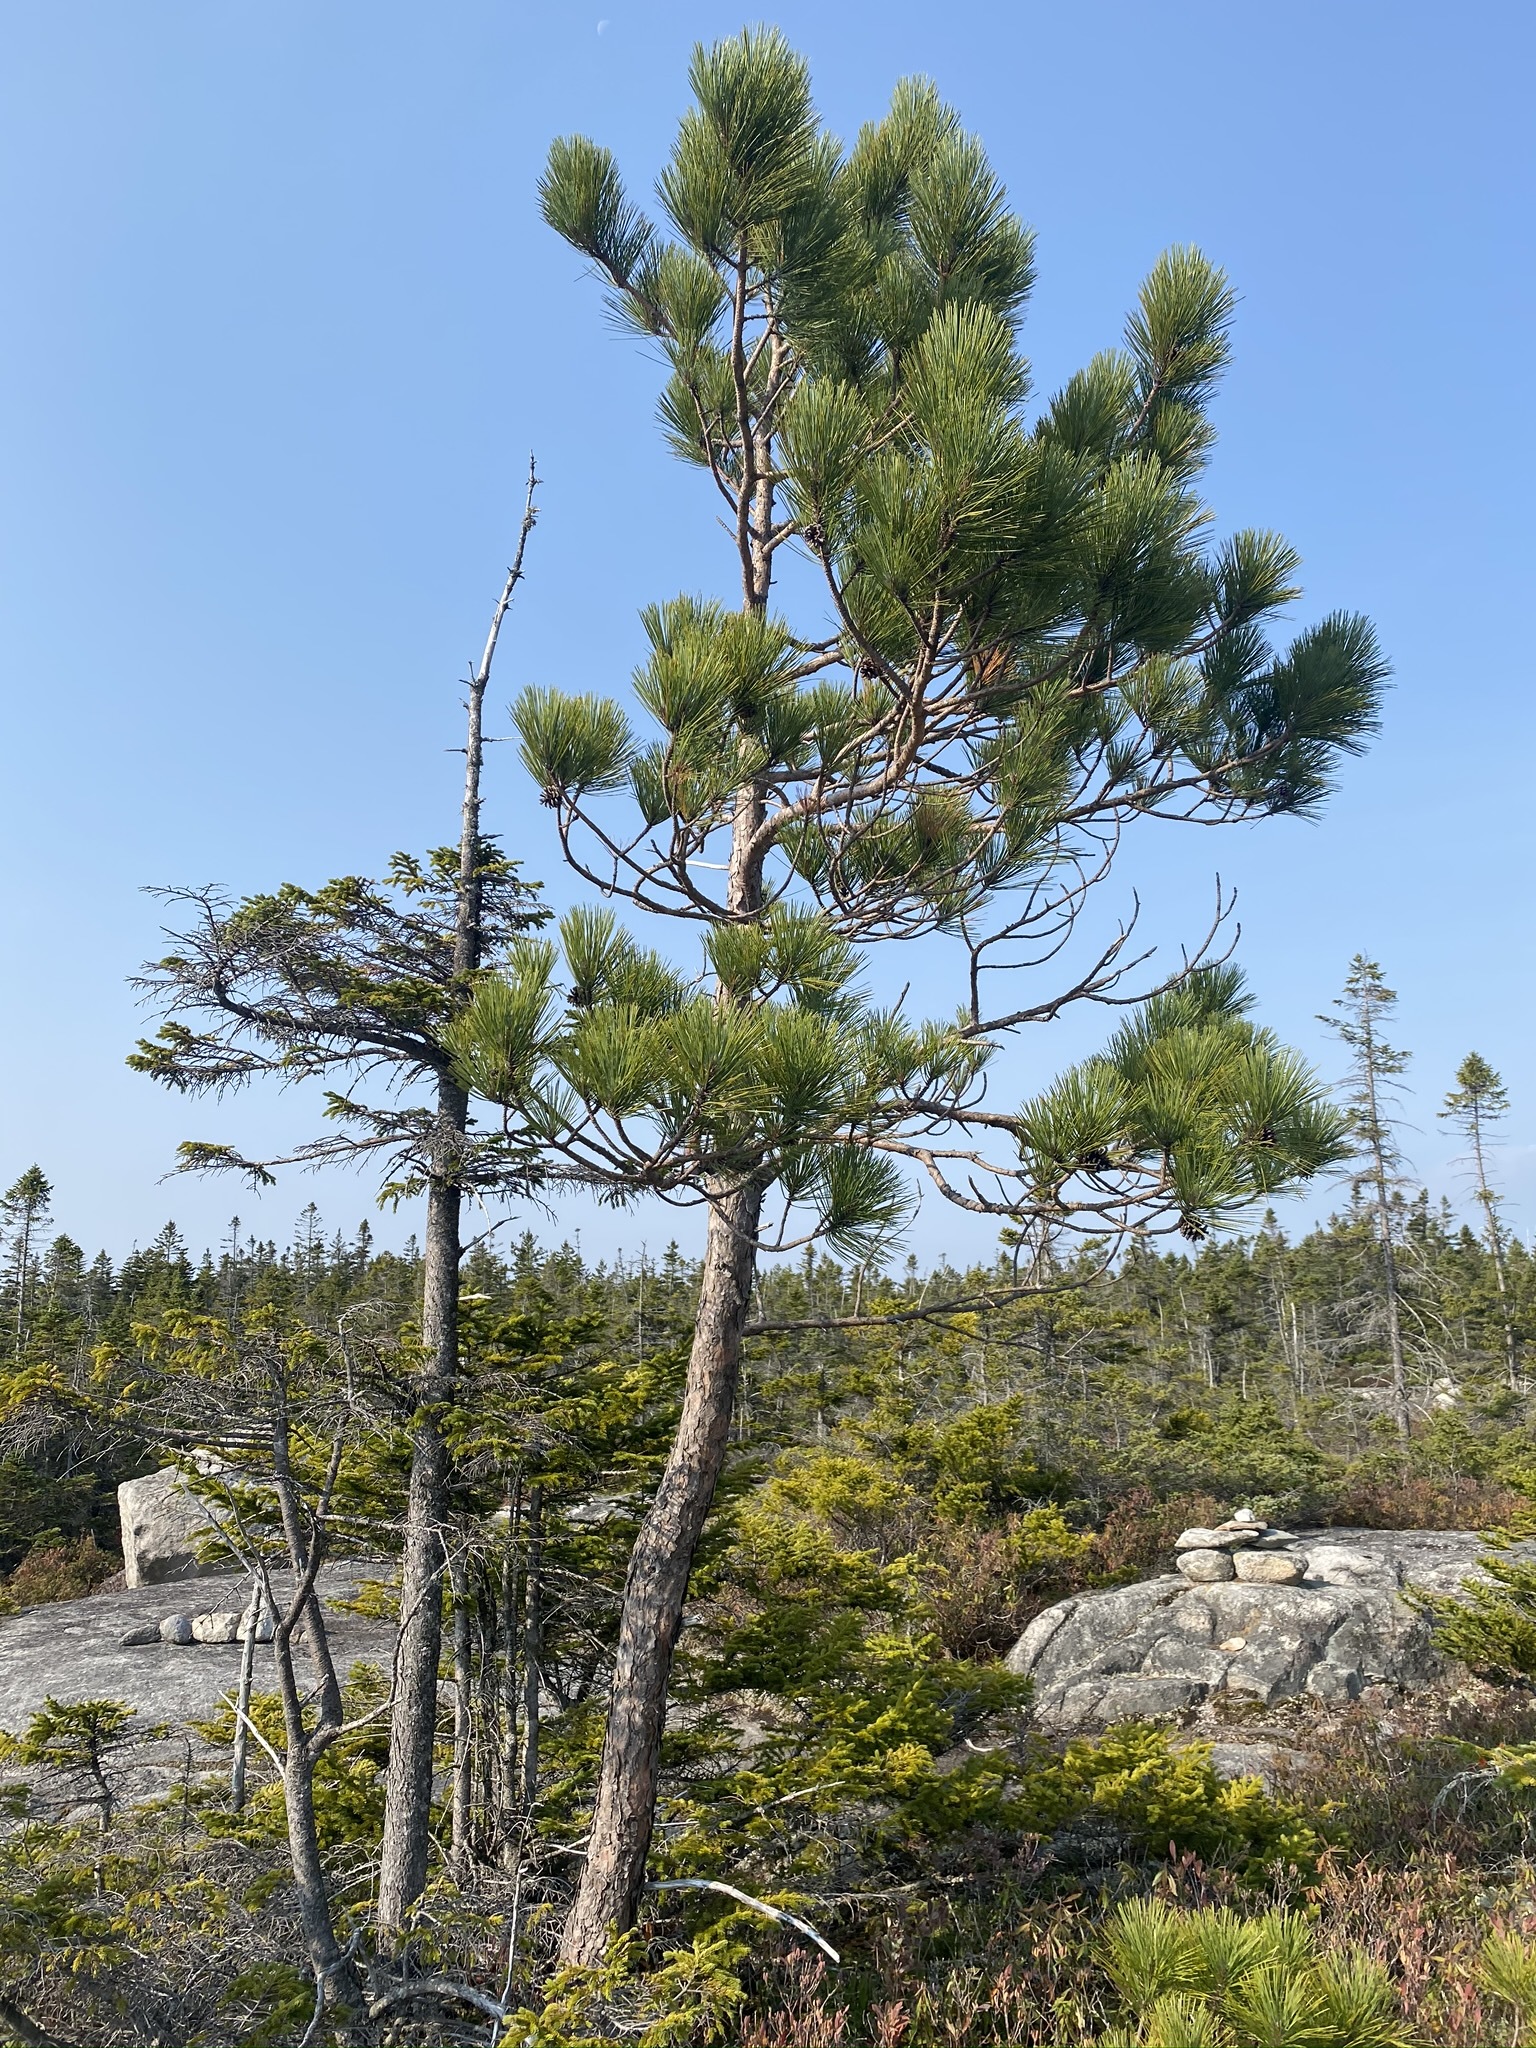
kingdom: Plantae
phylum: Tracheophyta
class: Pinopsida
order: Pinales
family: Pinaceae
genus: Pinus
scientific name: Pinus resinosa
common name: Norway pine
